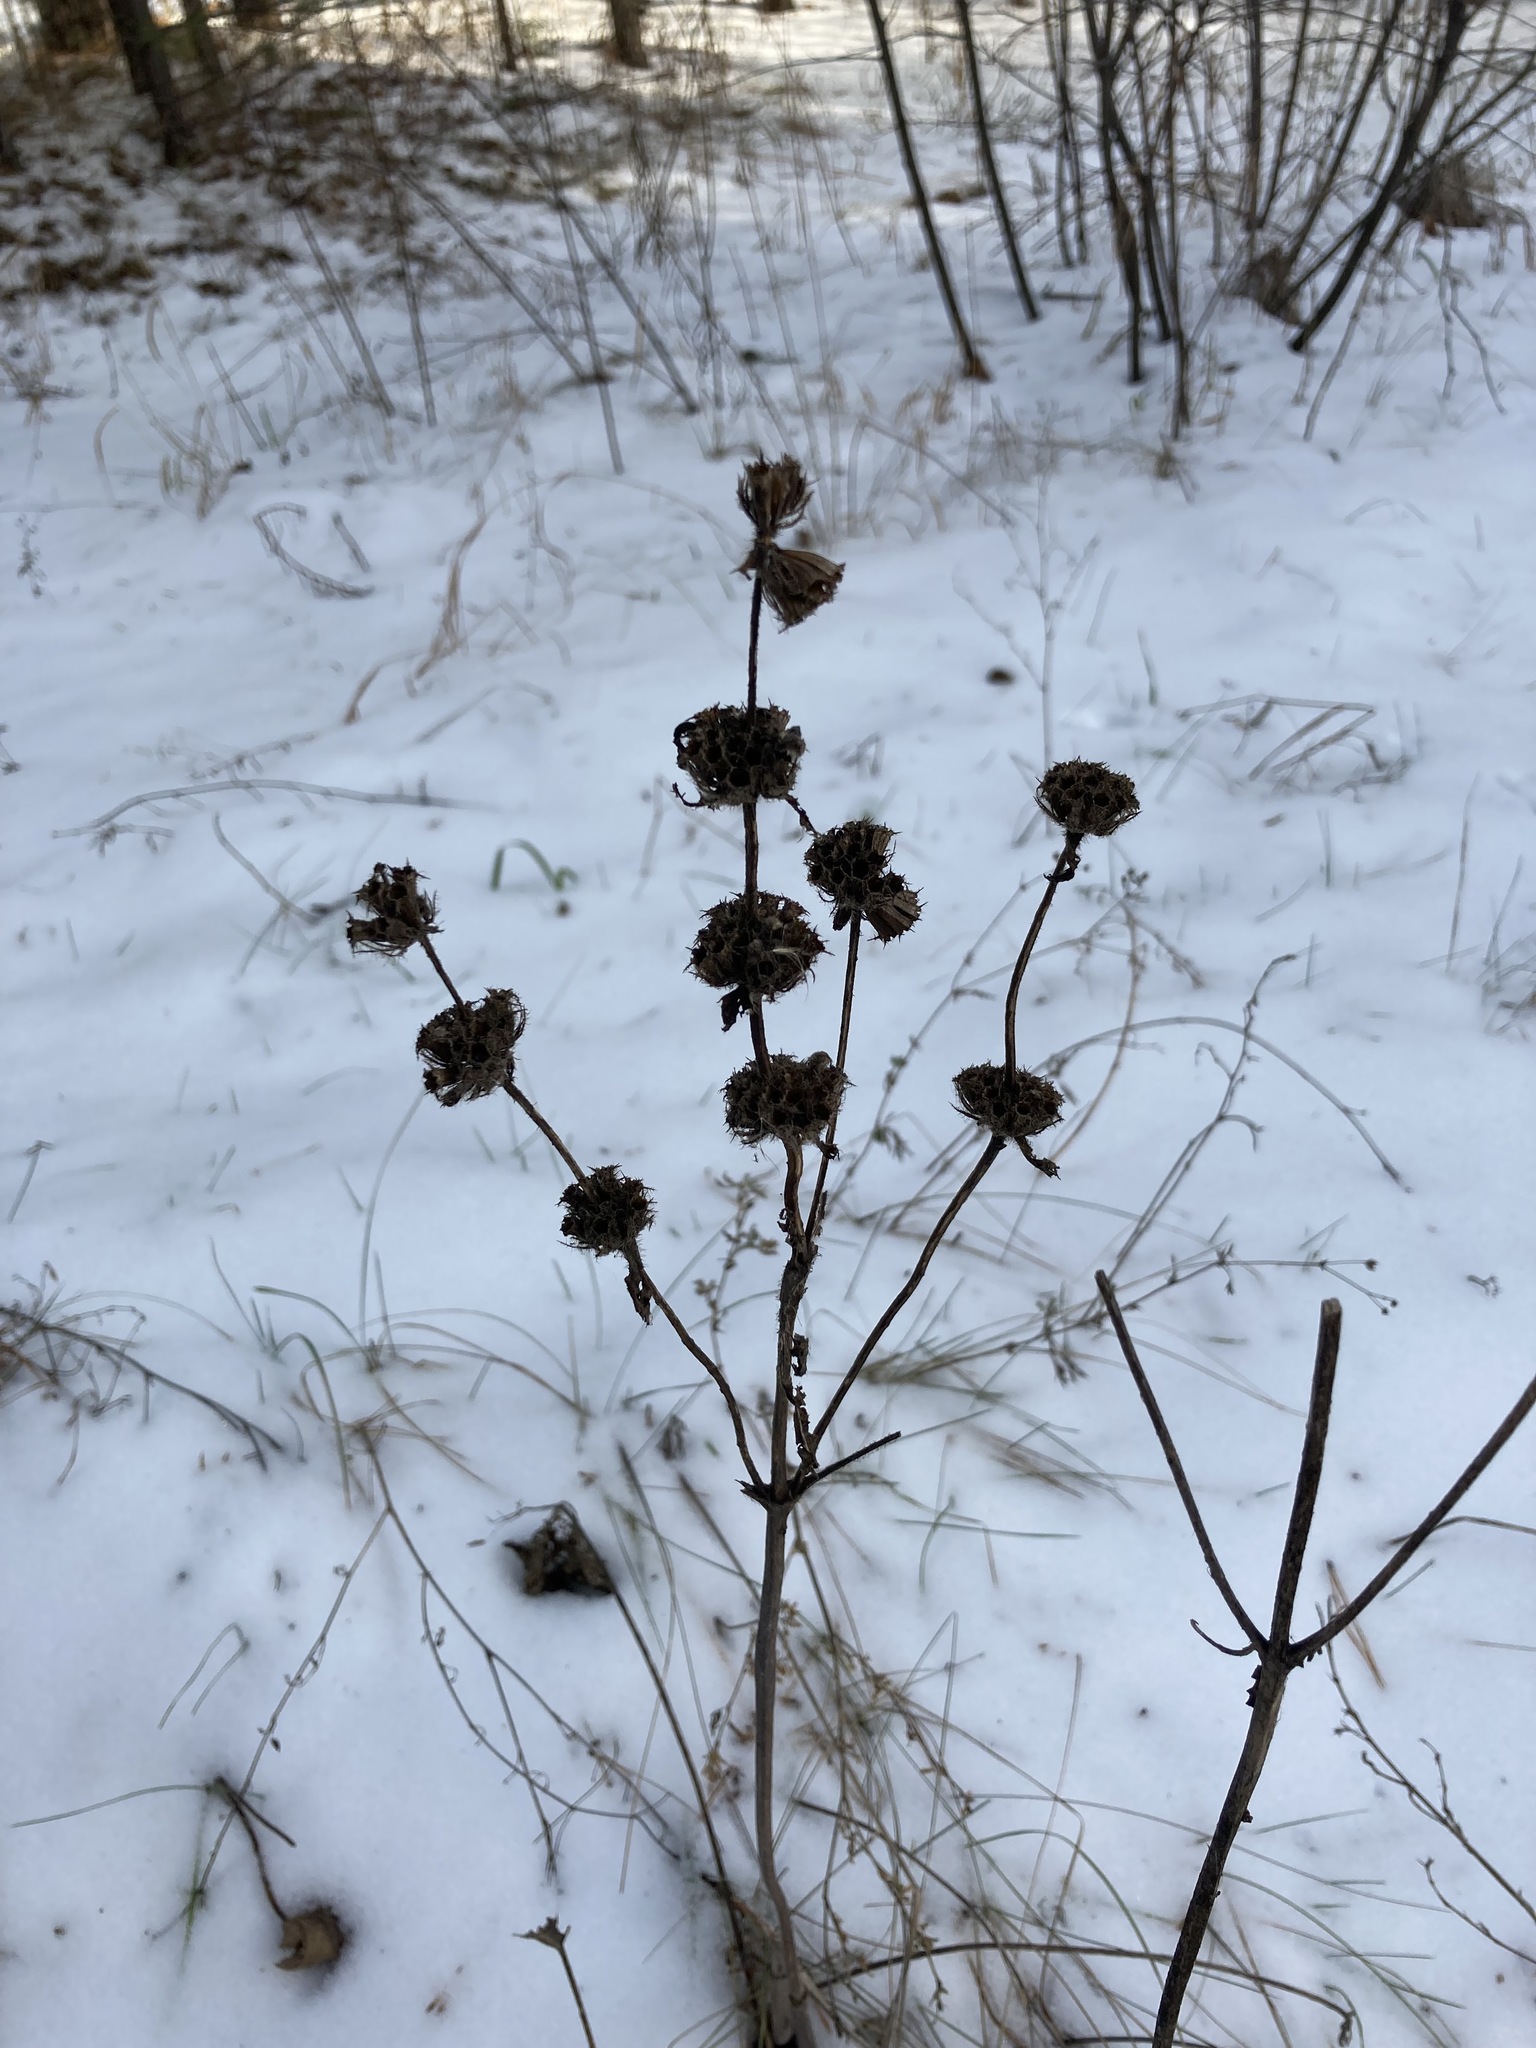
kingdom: Plantae
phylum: Tracheophyta
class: Magnoliopsida
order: Lamiales
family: Lamiaceae
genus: Phlomoides
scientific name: Phlomoides tuberosa
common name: Tuberous jerusalem sage
